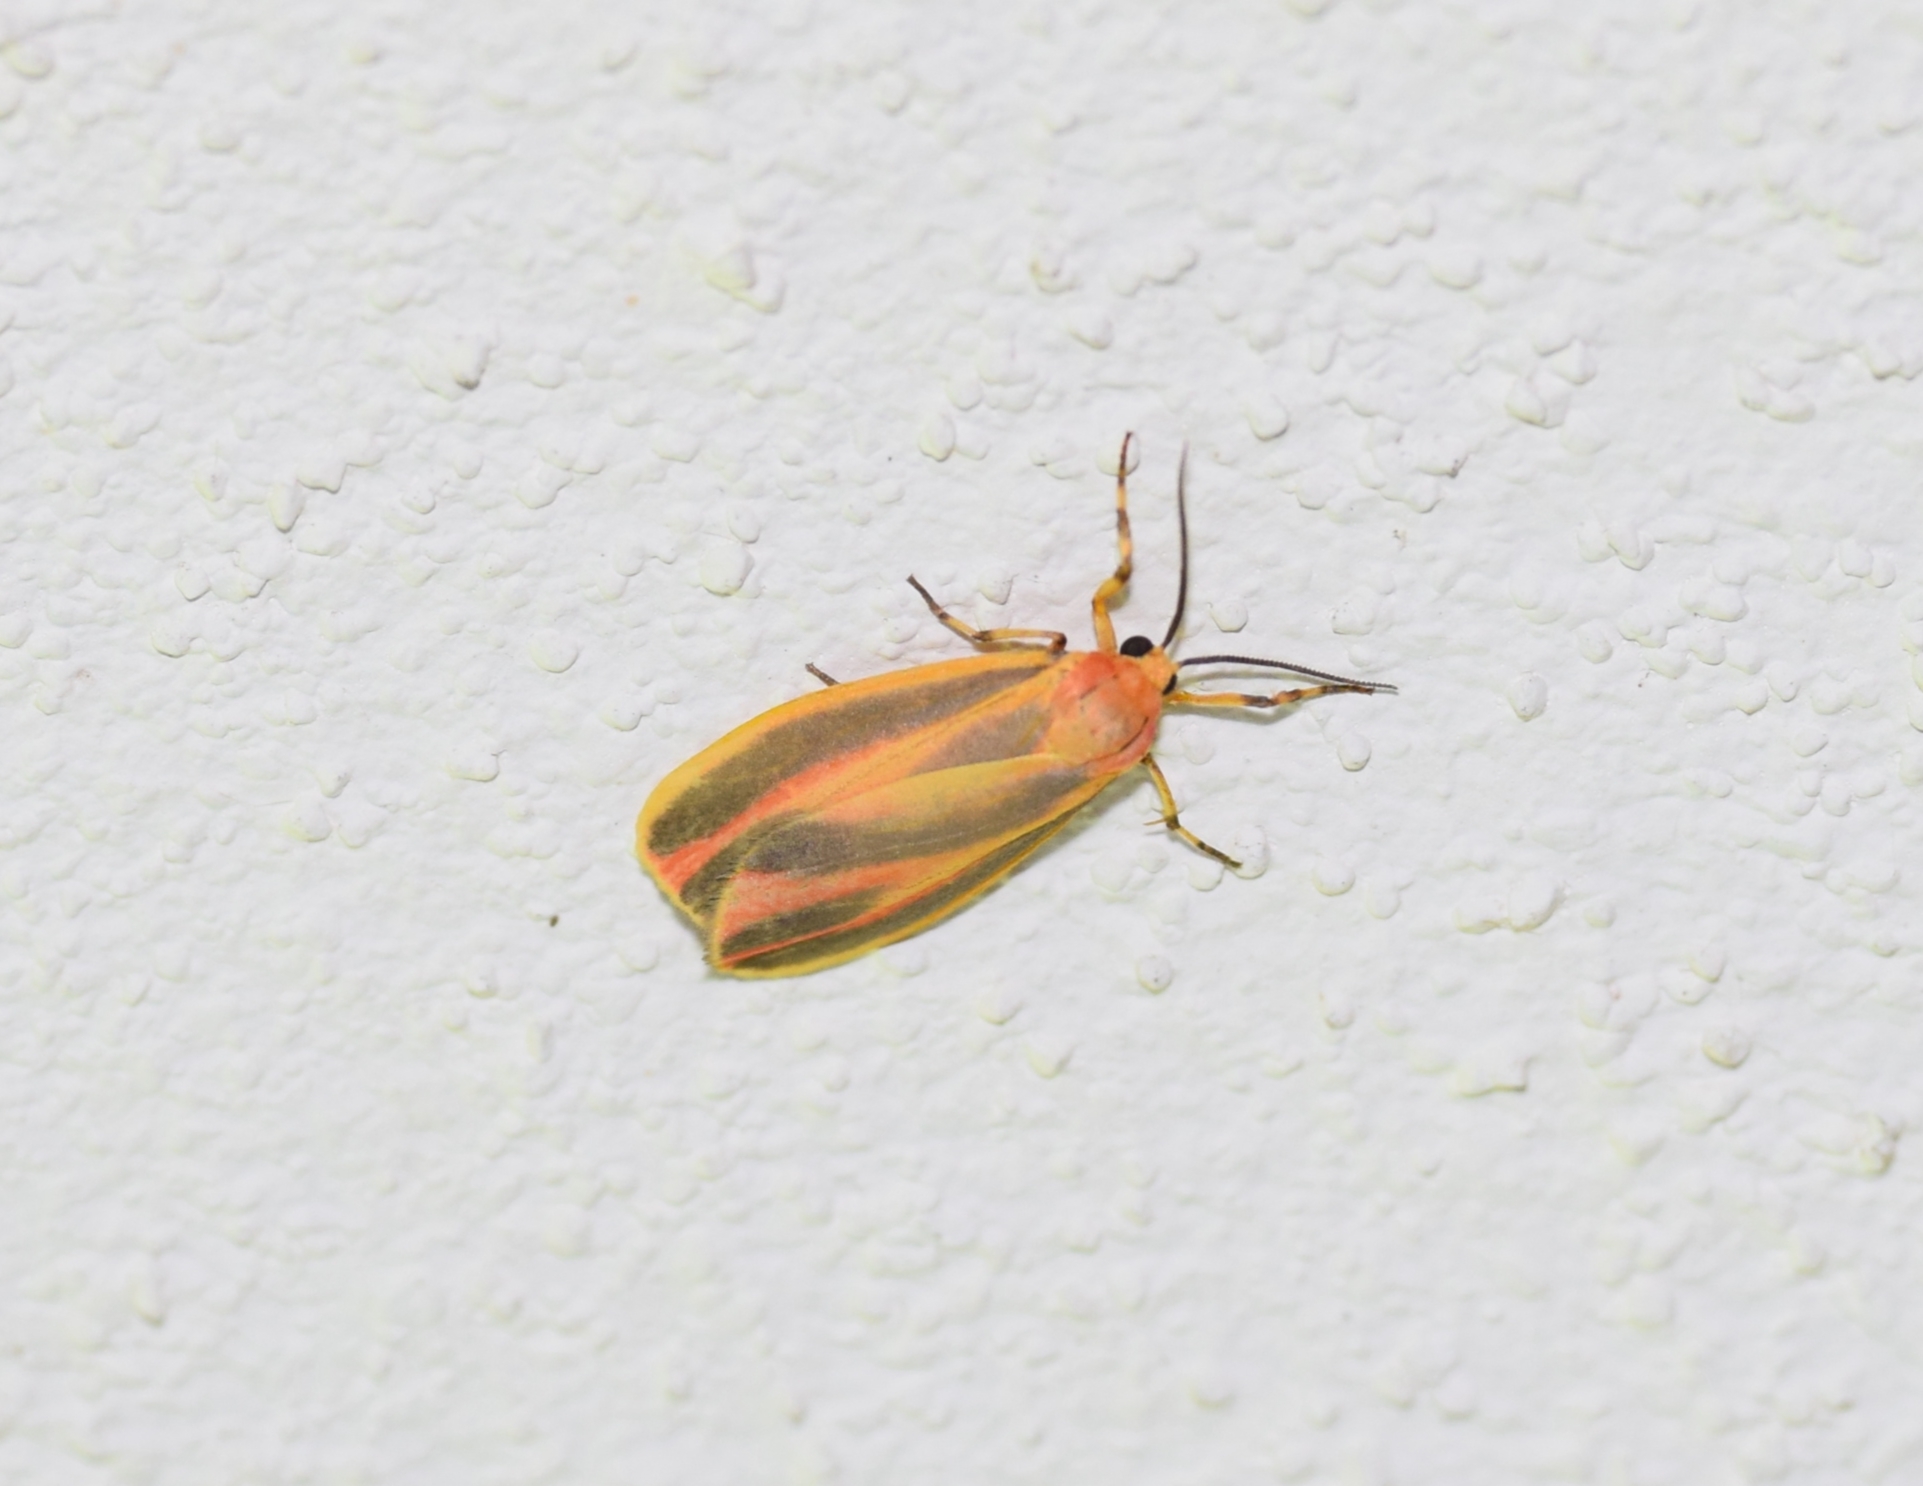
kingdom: Animalia
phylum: Arthropoda
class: Insecta
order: Lepidoptera
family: Erebidae
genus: Hypoprepia
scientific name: Hypoprepia fucosa
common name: Painted lichen moth
